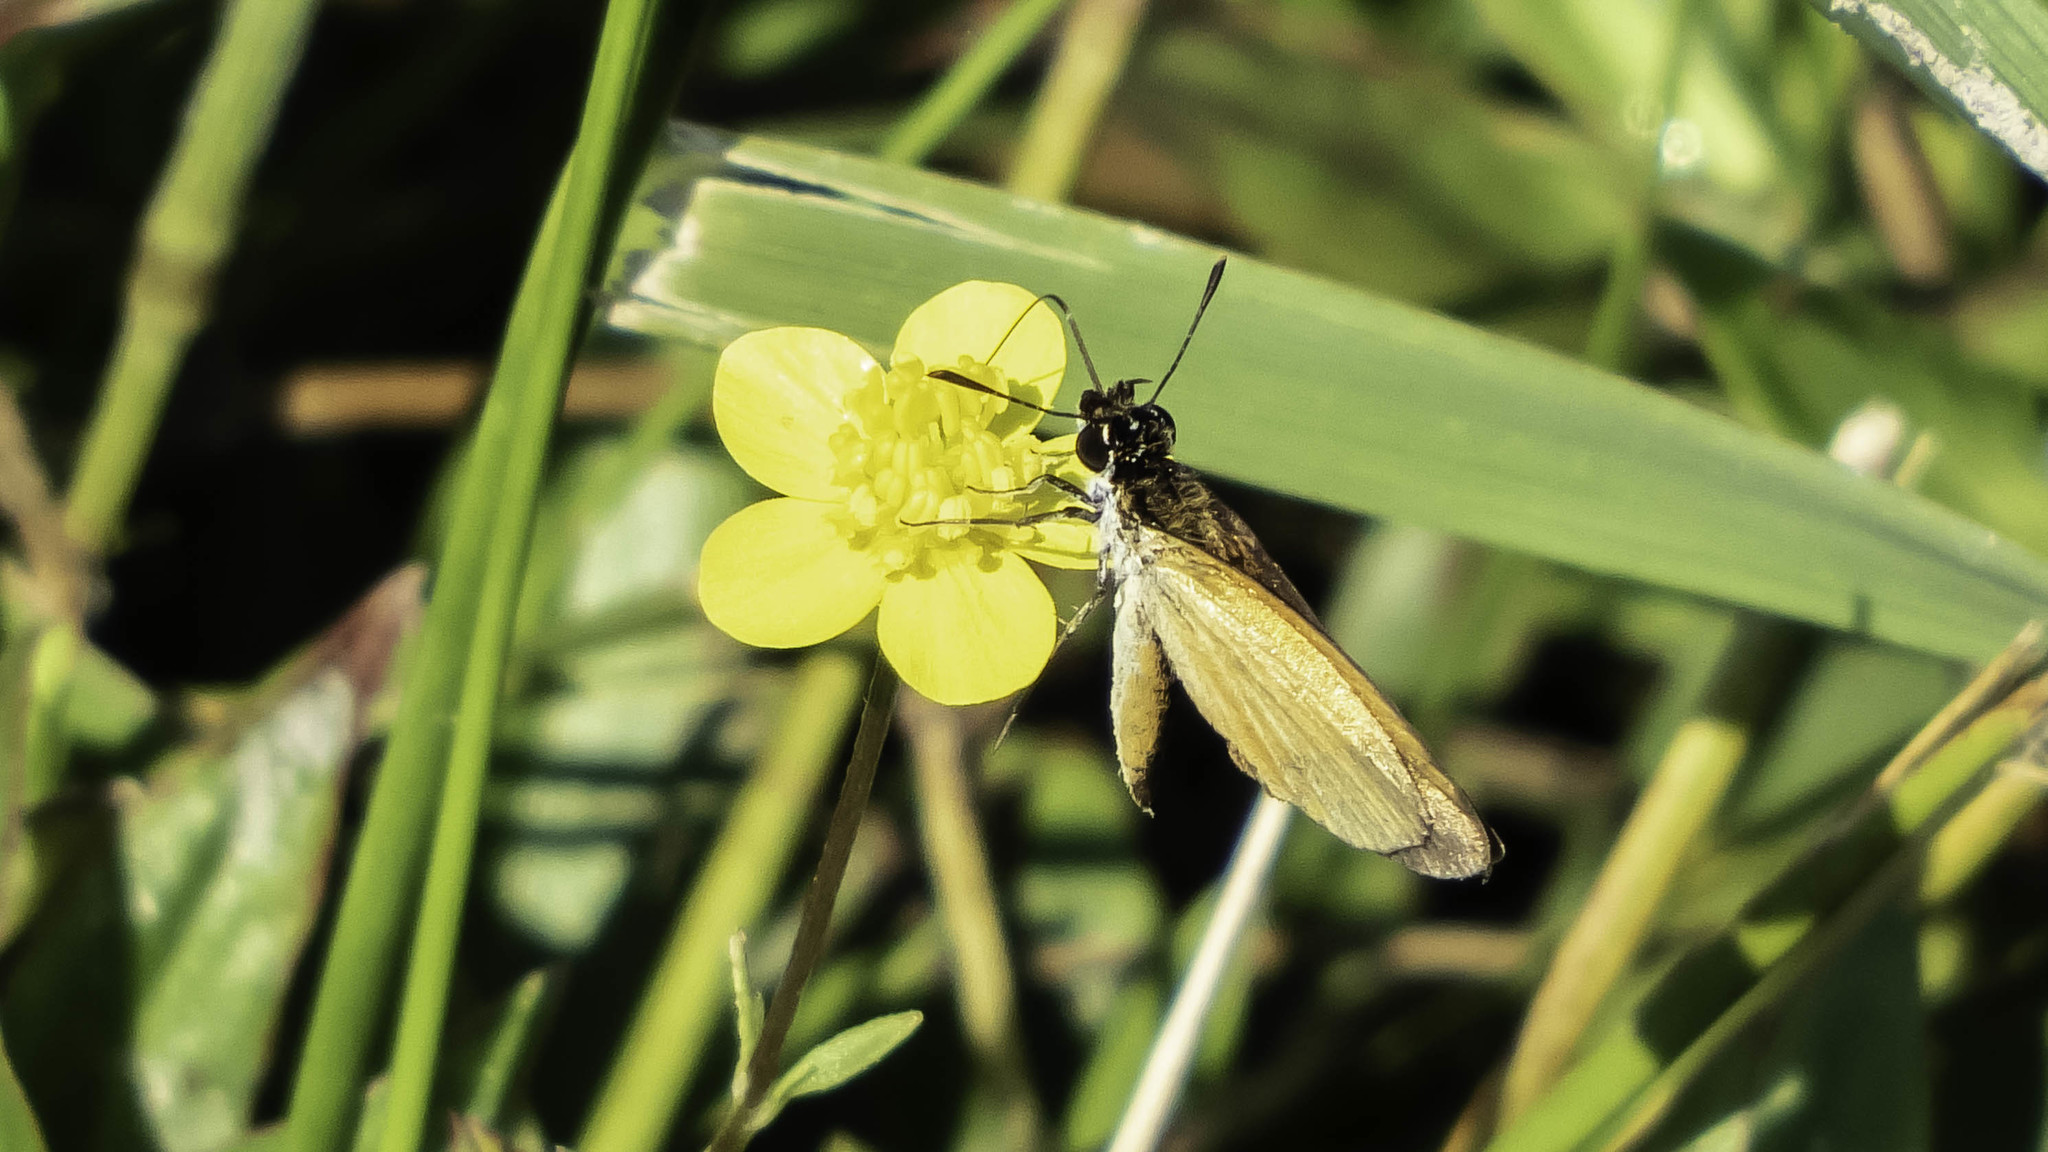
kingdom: Animalia
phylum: Arthropoda
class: Insecta
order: Lepidoptera
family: Hesperiidae
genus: Ancyloxypha
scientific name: Ancyloxypha numitor
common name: Least skipper
